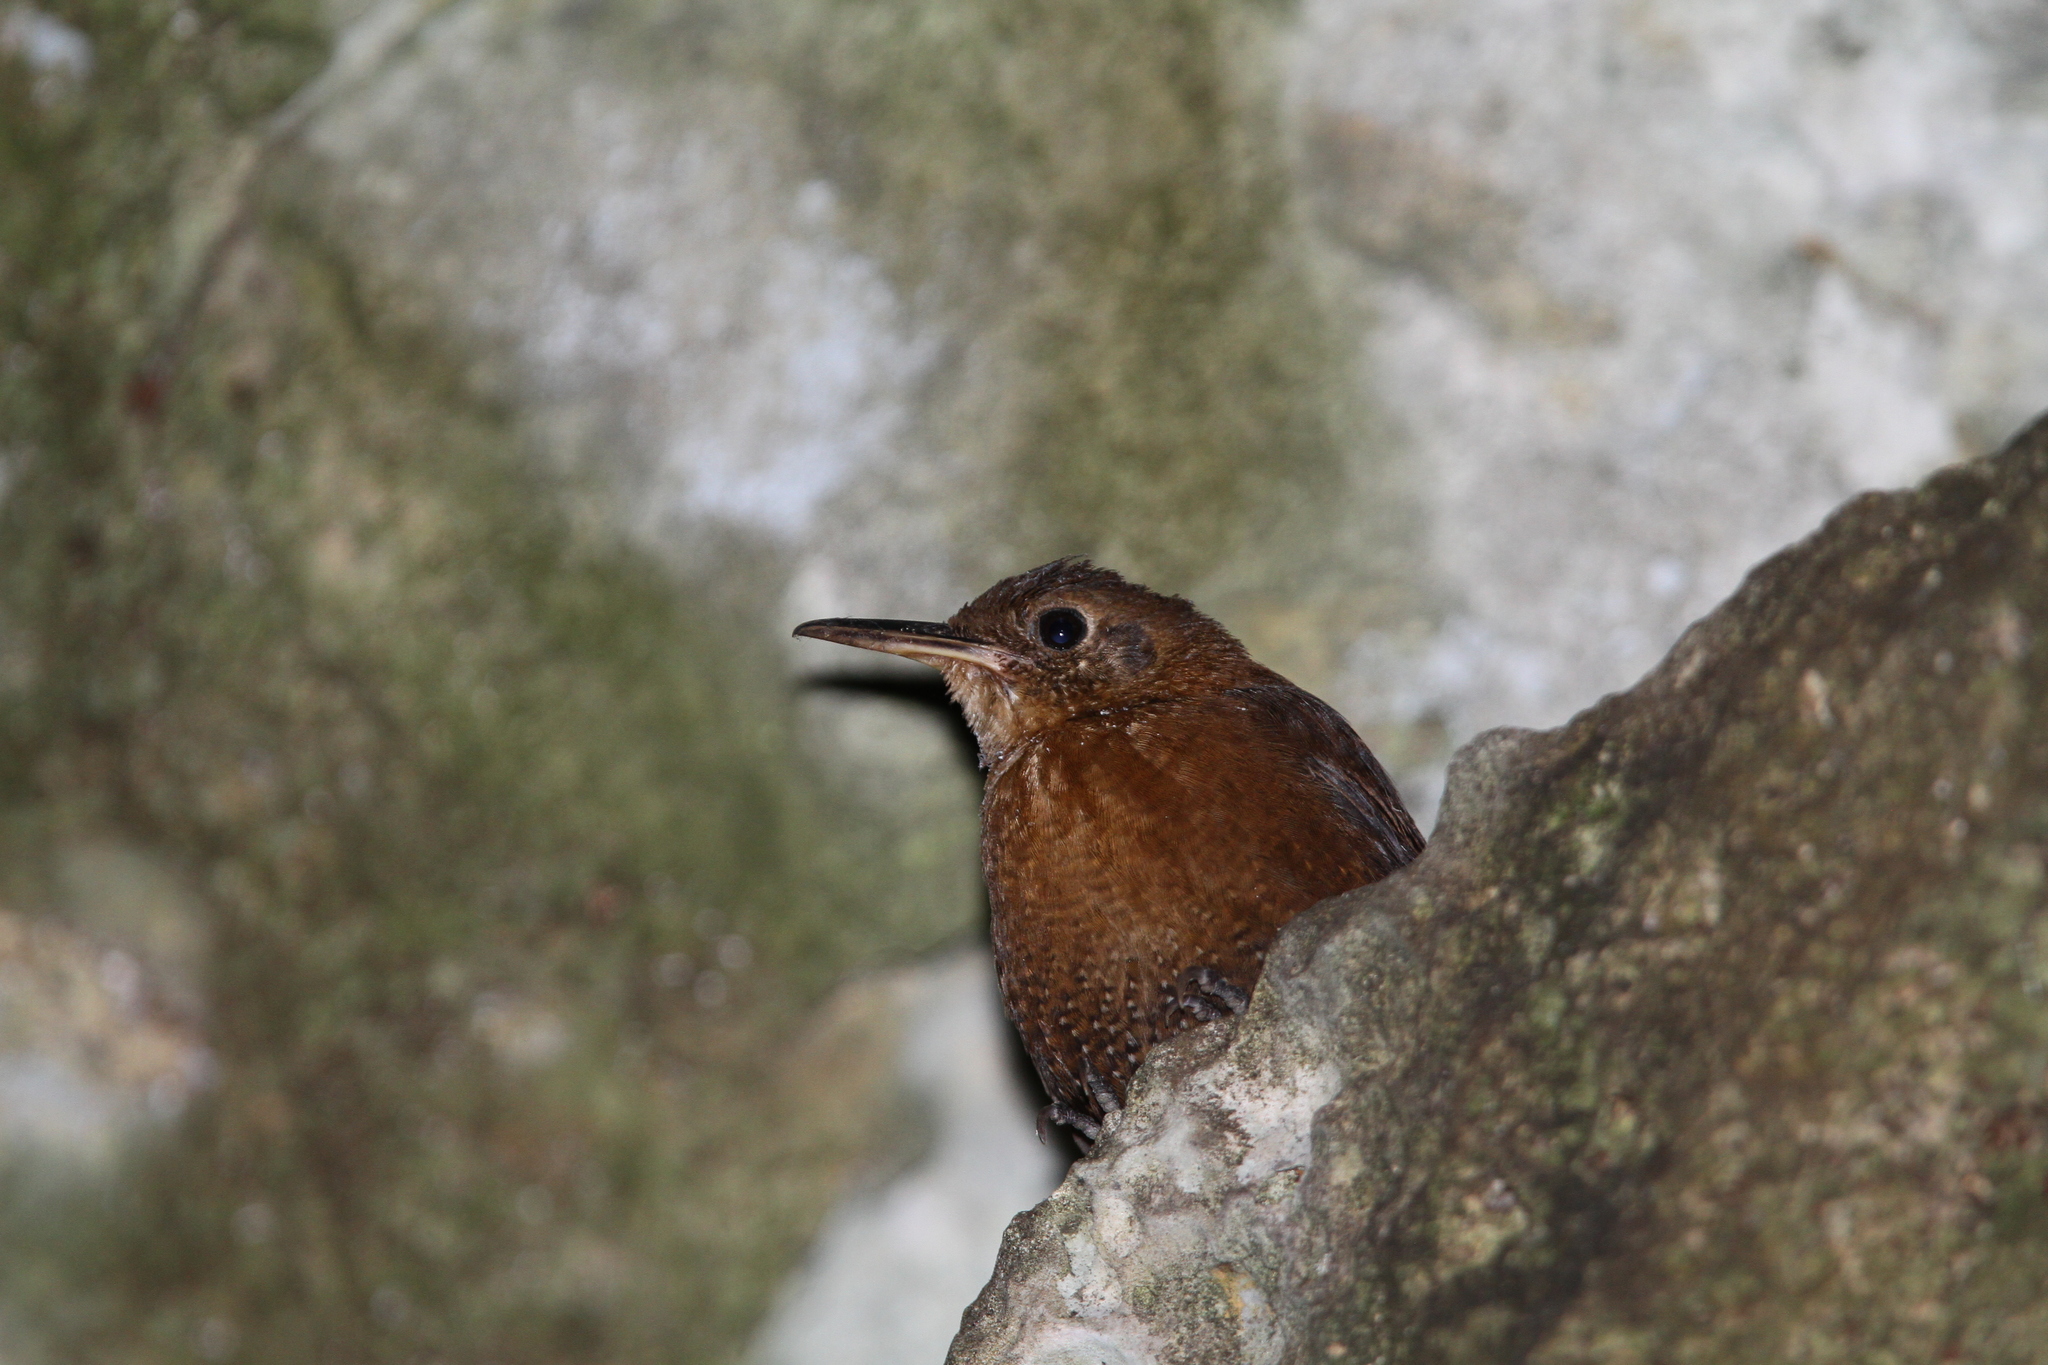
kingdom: Animalia
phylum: Chordata
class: Aves
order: Passeriformes
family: Troglodytidae
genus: Hylorchilus
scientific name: Hylorchilus sumichrasti
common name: Sumichrast's wren
